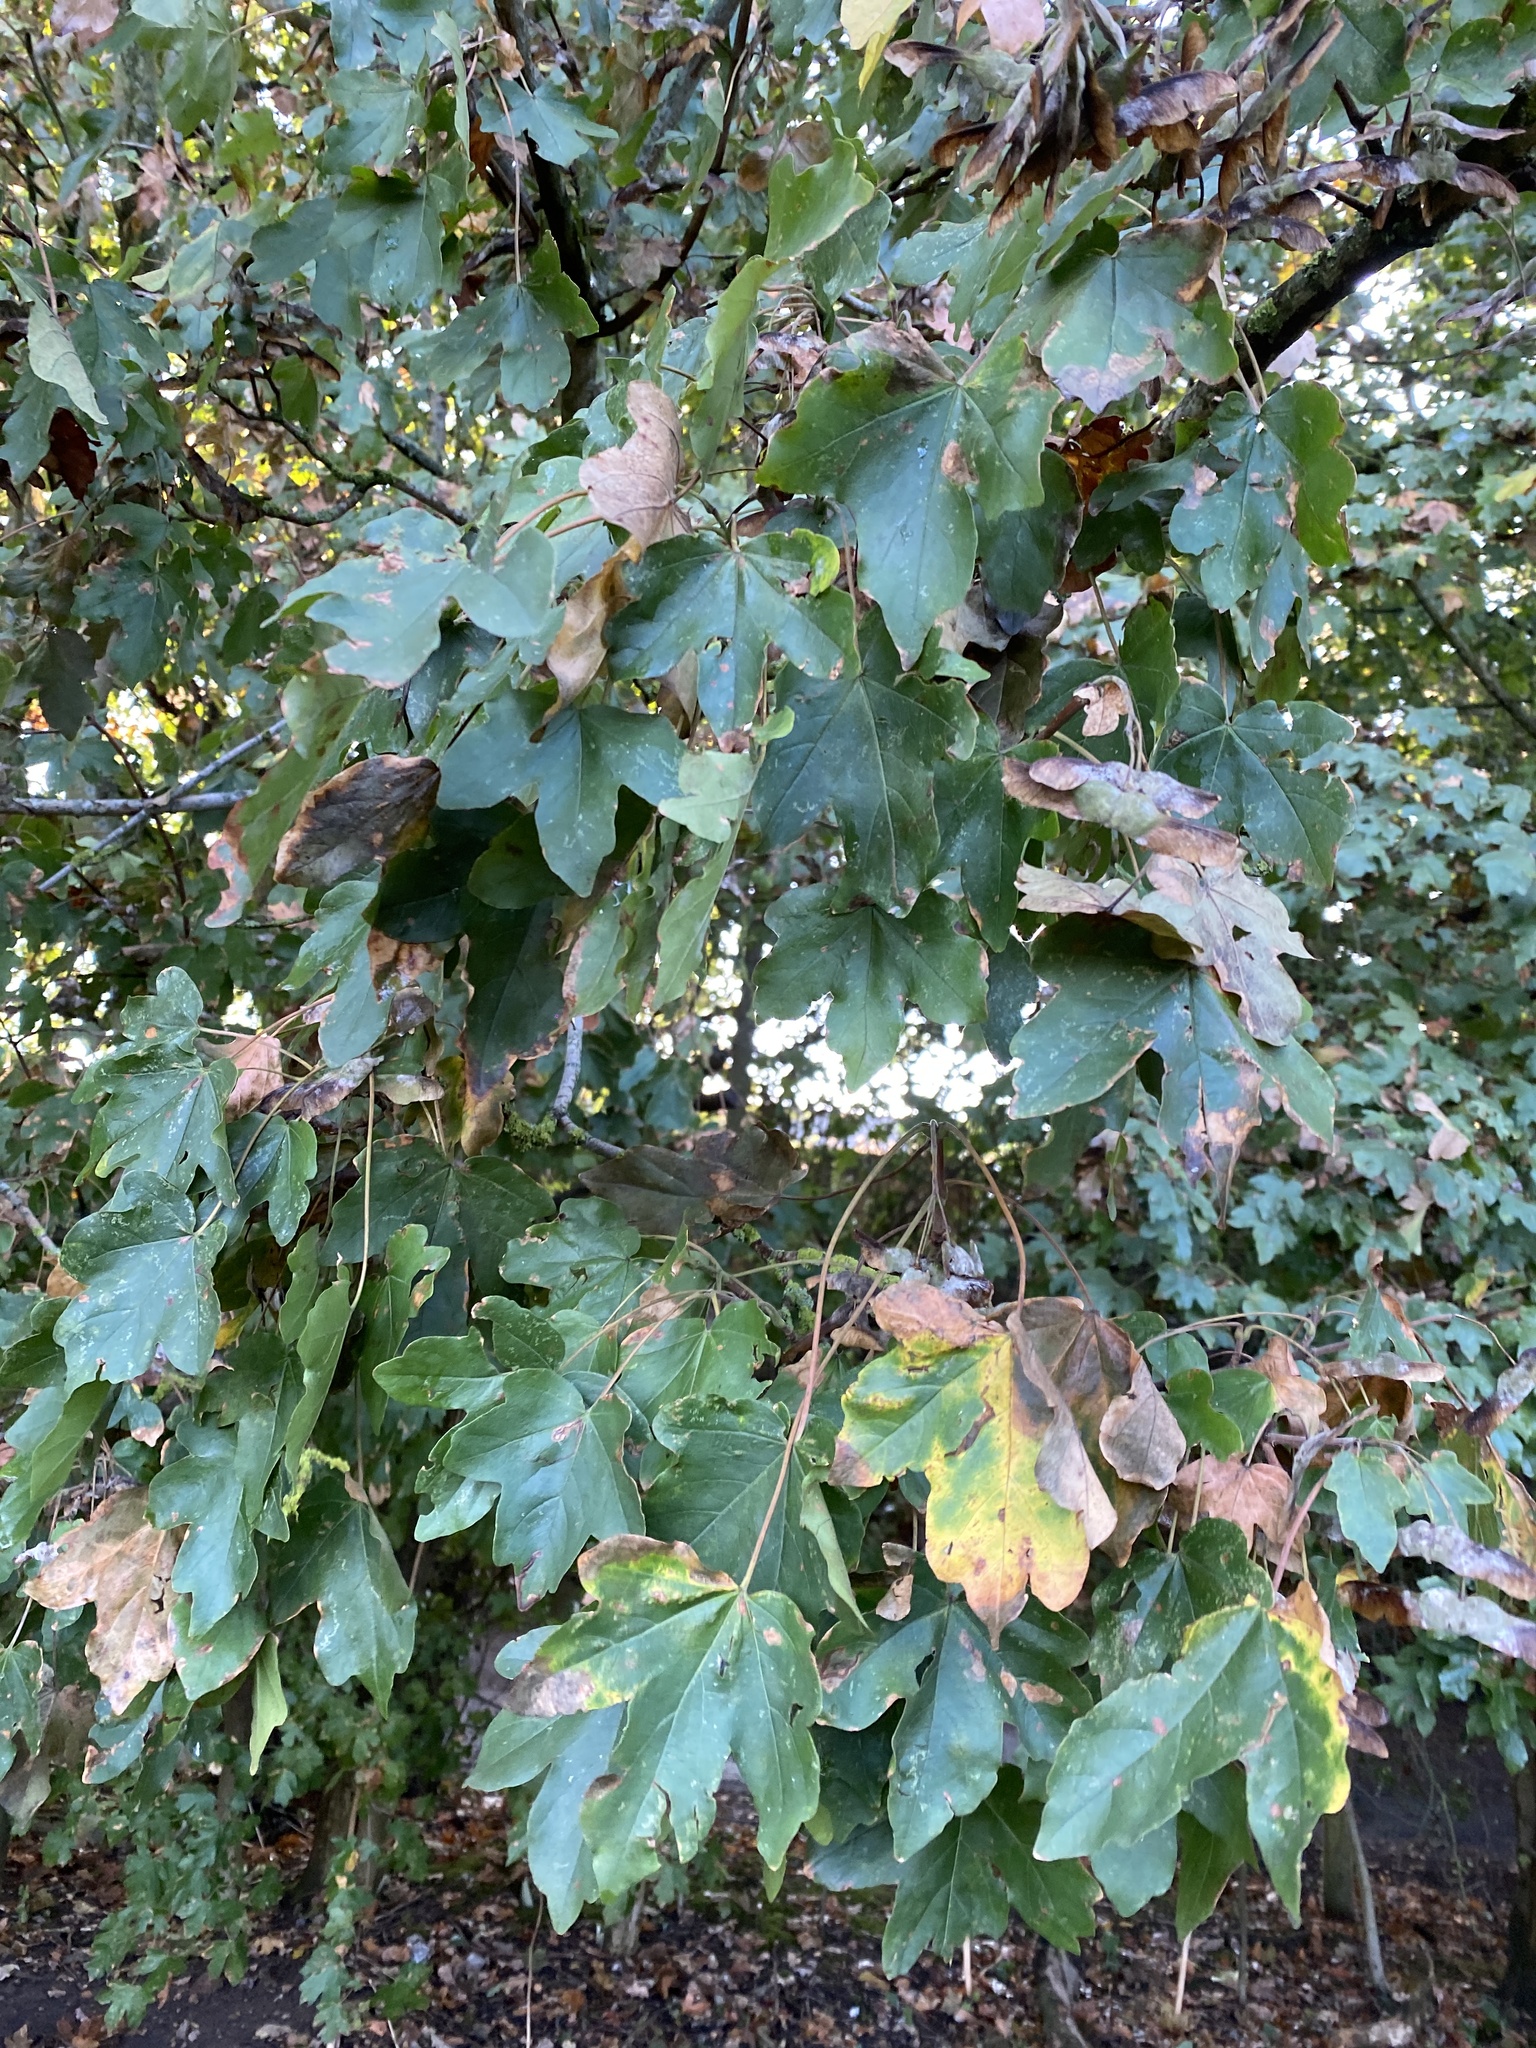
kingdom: Plantae
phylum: Tracheophyta
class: Magnoliopsida
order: Sapindales
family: Sapindaceae
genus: Acer
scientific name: Acer campestre
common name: Field maple
